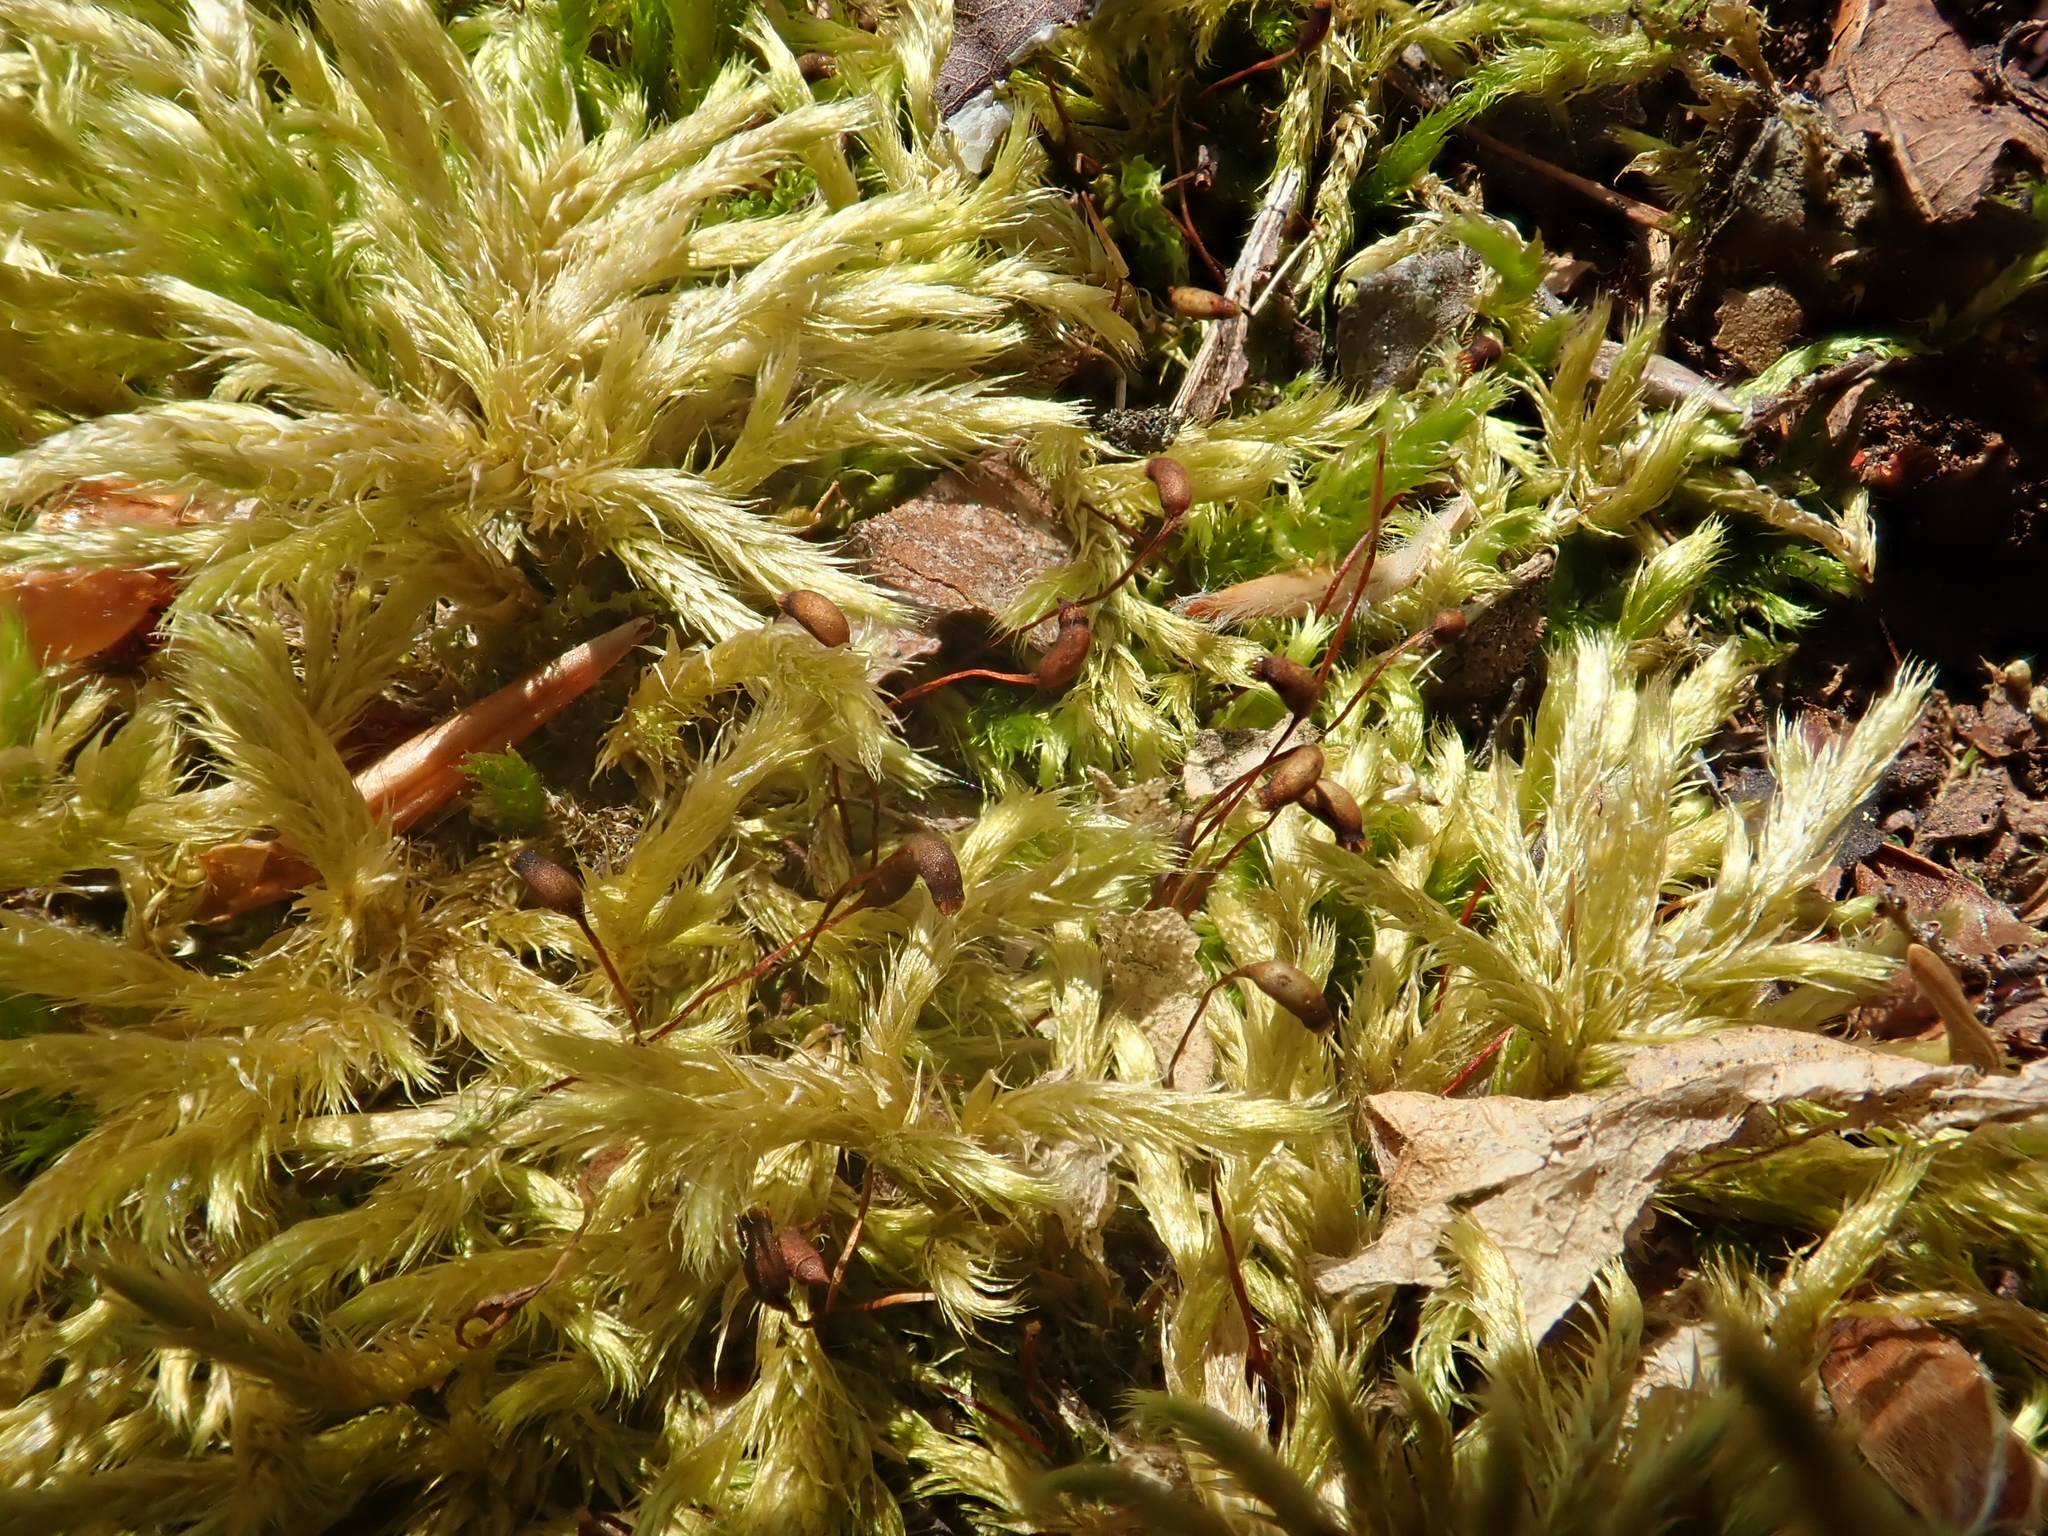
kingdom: Plantae
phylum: Bryophyta
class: Bryopsida
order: Hypnales
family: Brachytheciaceae
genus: Brachythecium
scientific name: Brachythecium salebrosum
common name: Smooth-stalk feather-moss
